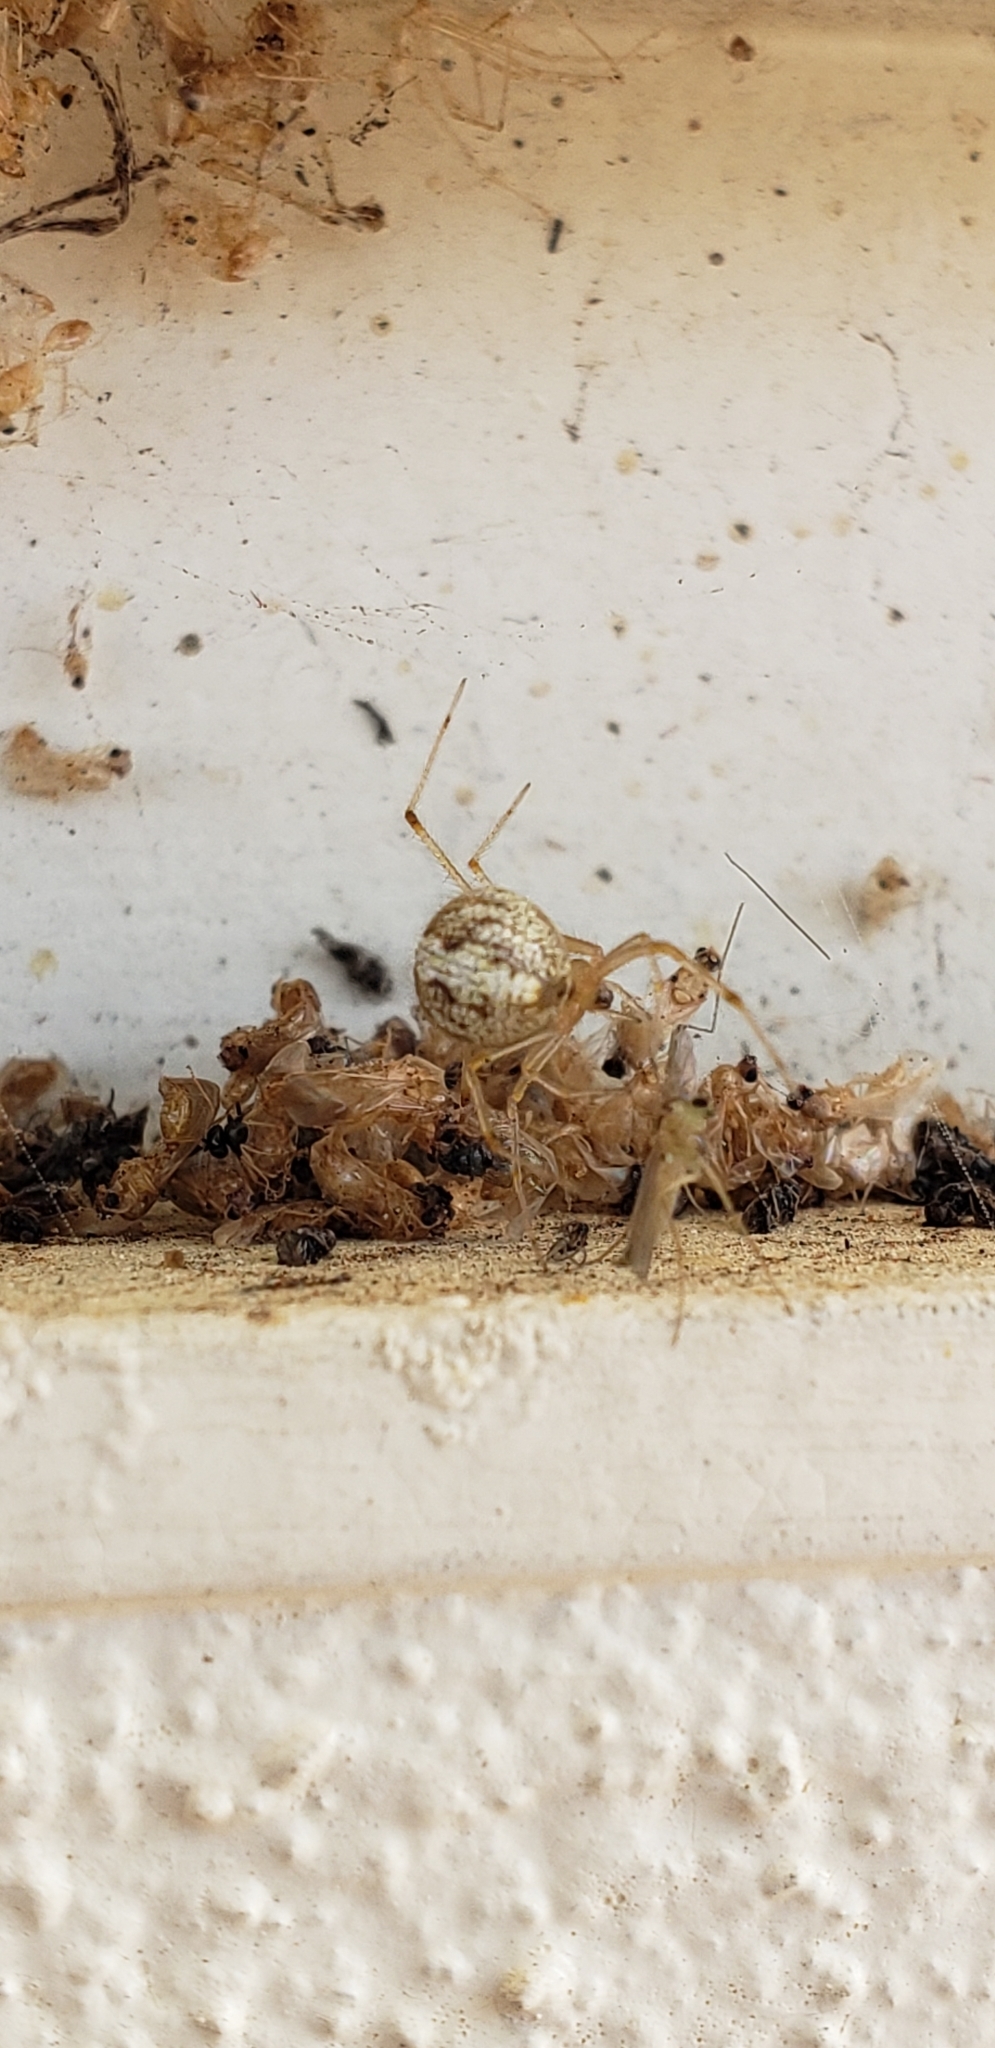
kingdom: Animalia
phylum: Arthropoda
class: Arachnida
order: Araneae
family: Theridiidae
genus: Parasteatoda
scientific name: Parasteatoda tepidariorum
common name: Common house spider
